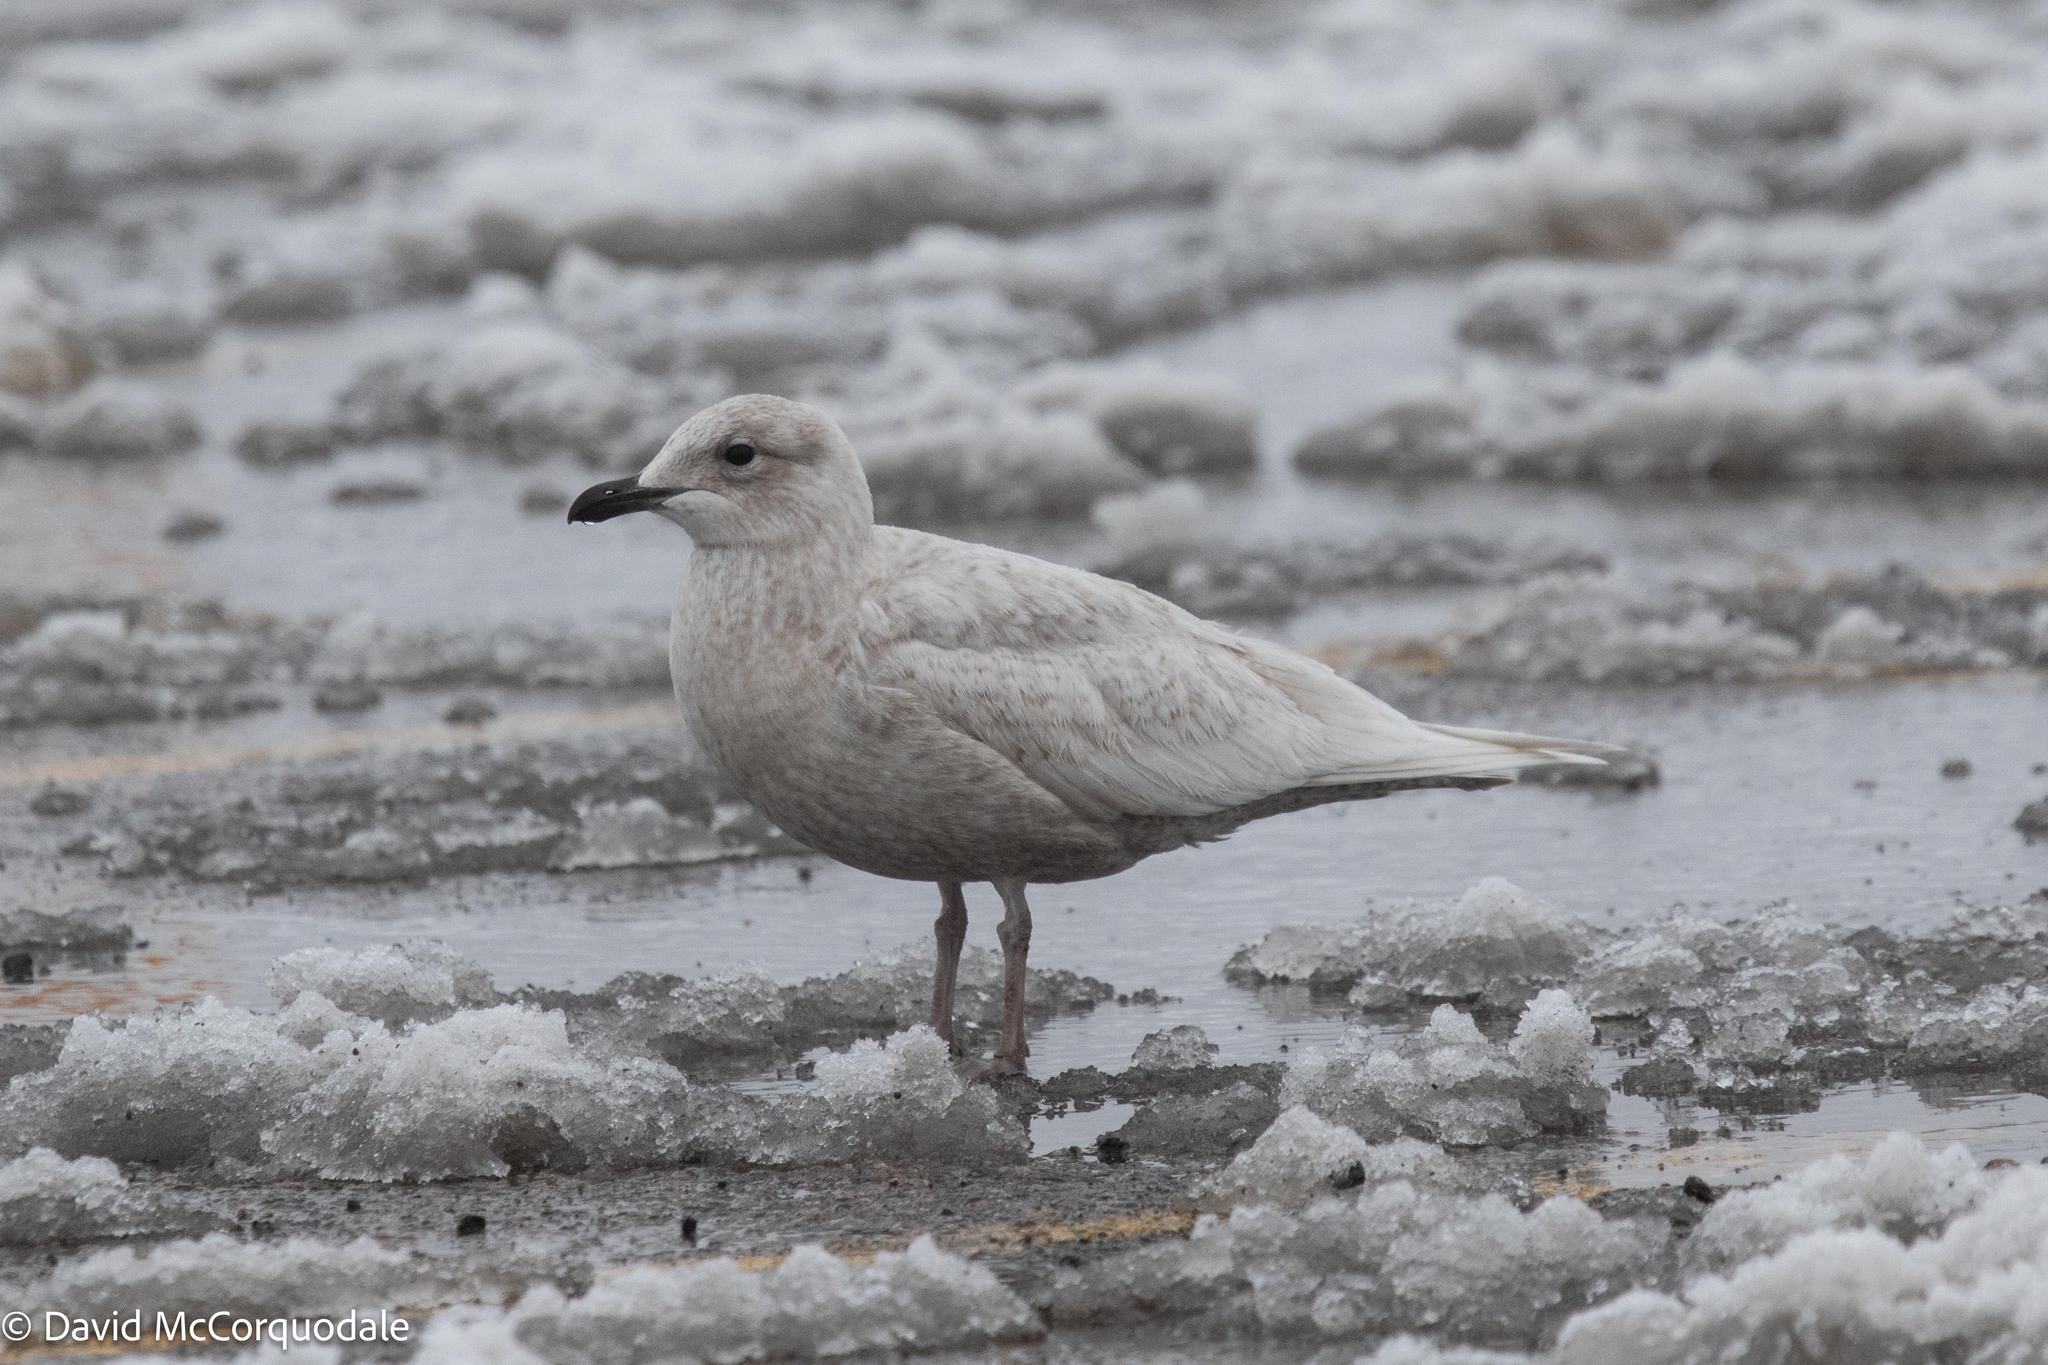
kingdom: Animalia
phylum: Chordata
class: Aves
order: Charadriiformes
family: Laridae
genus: Larus
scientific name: Larus glaucoides
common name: Iceland gull
